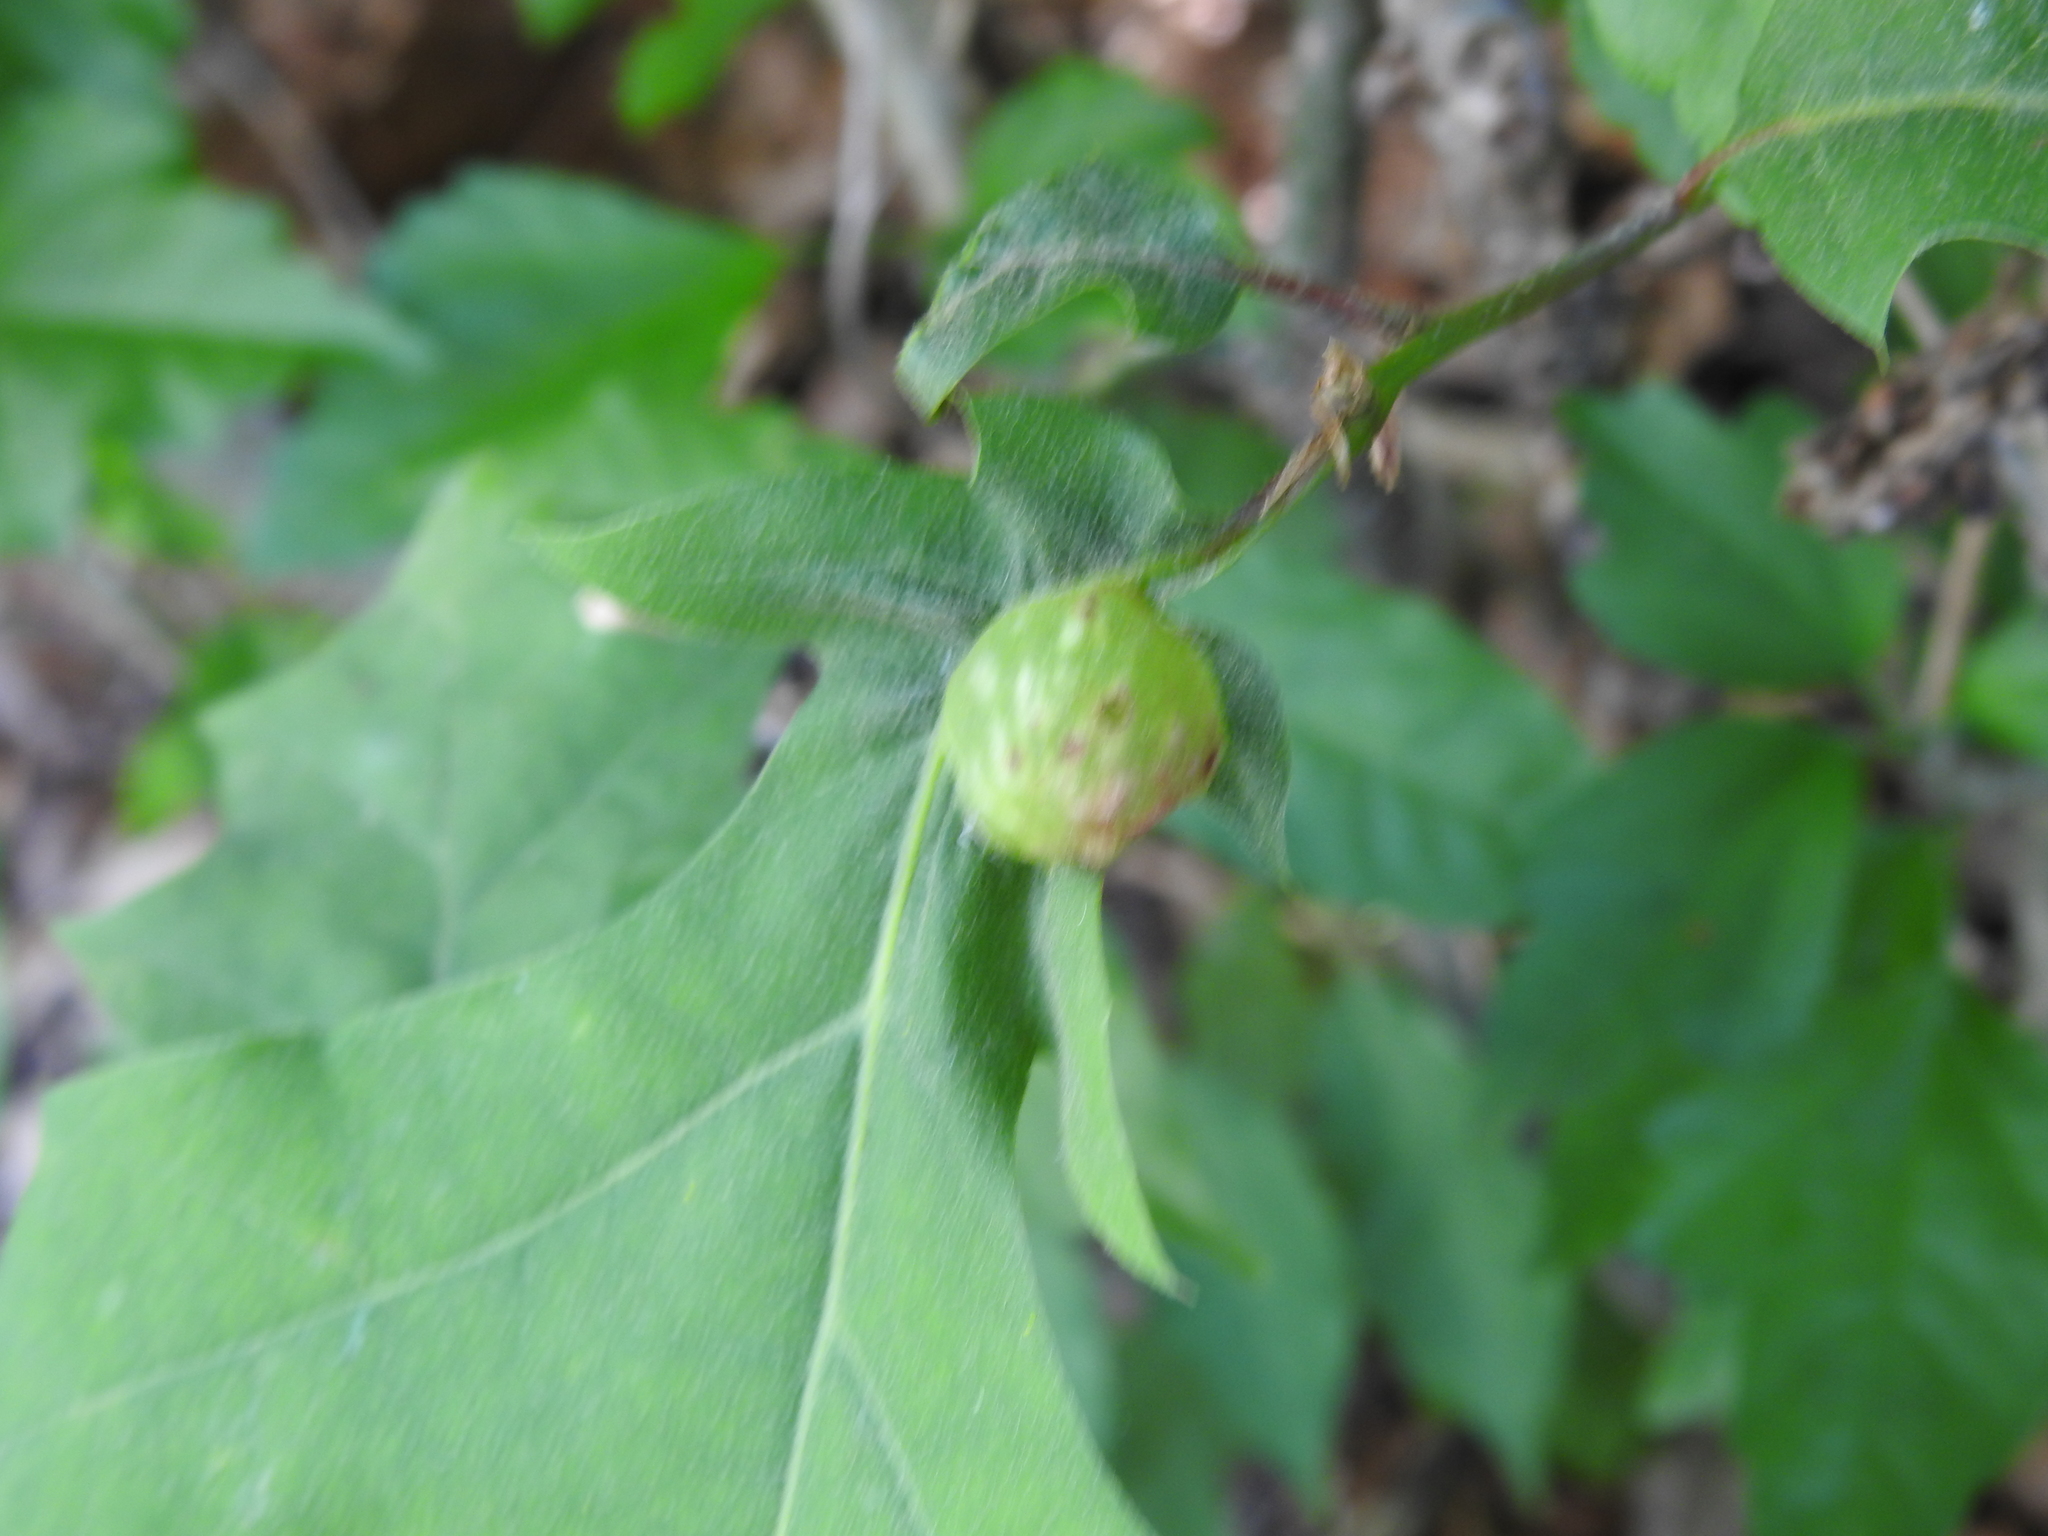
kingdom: Animalia
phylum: Arthropoda
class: Insecta
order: Hymenoptera
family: Cynipidae
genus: Dryocosmus
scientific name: Dryocosmus quercuspalustris
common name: Succulent oak gall wasp
